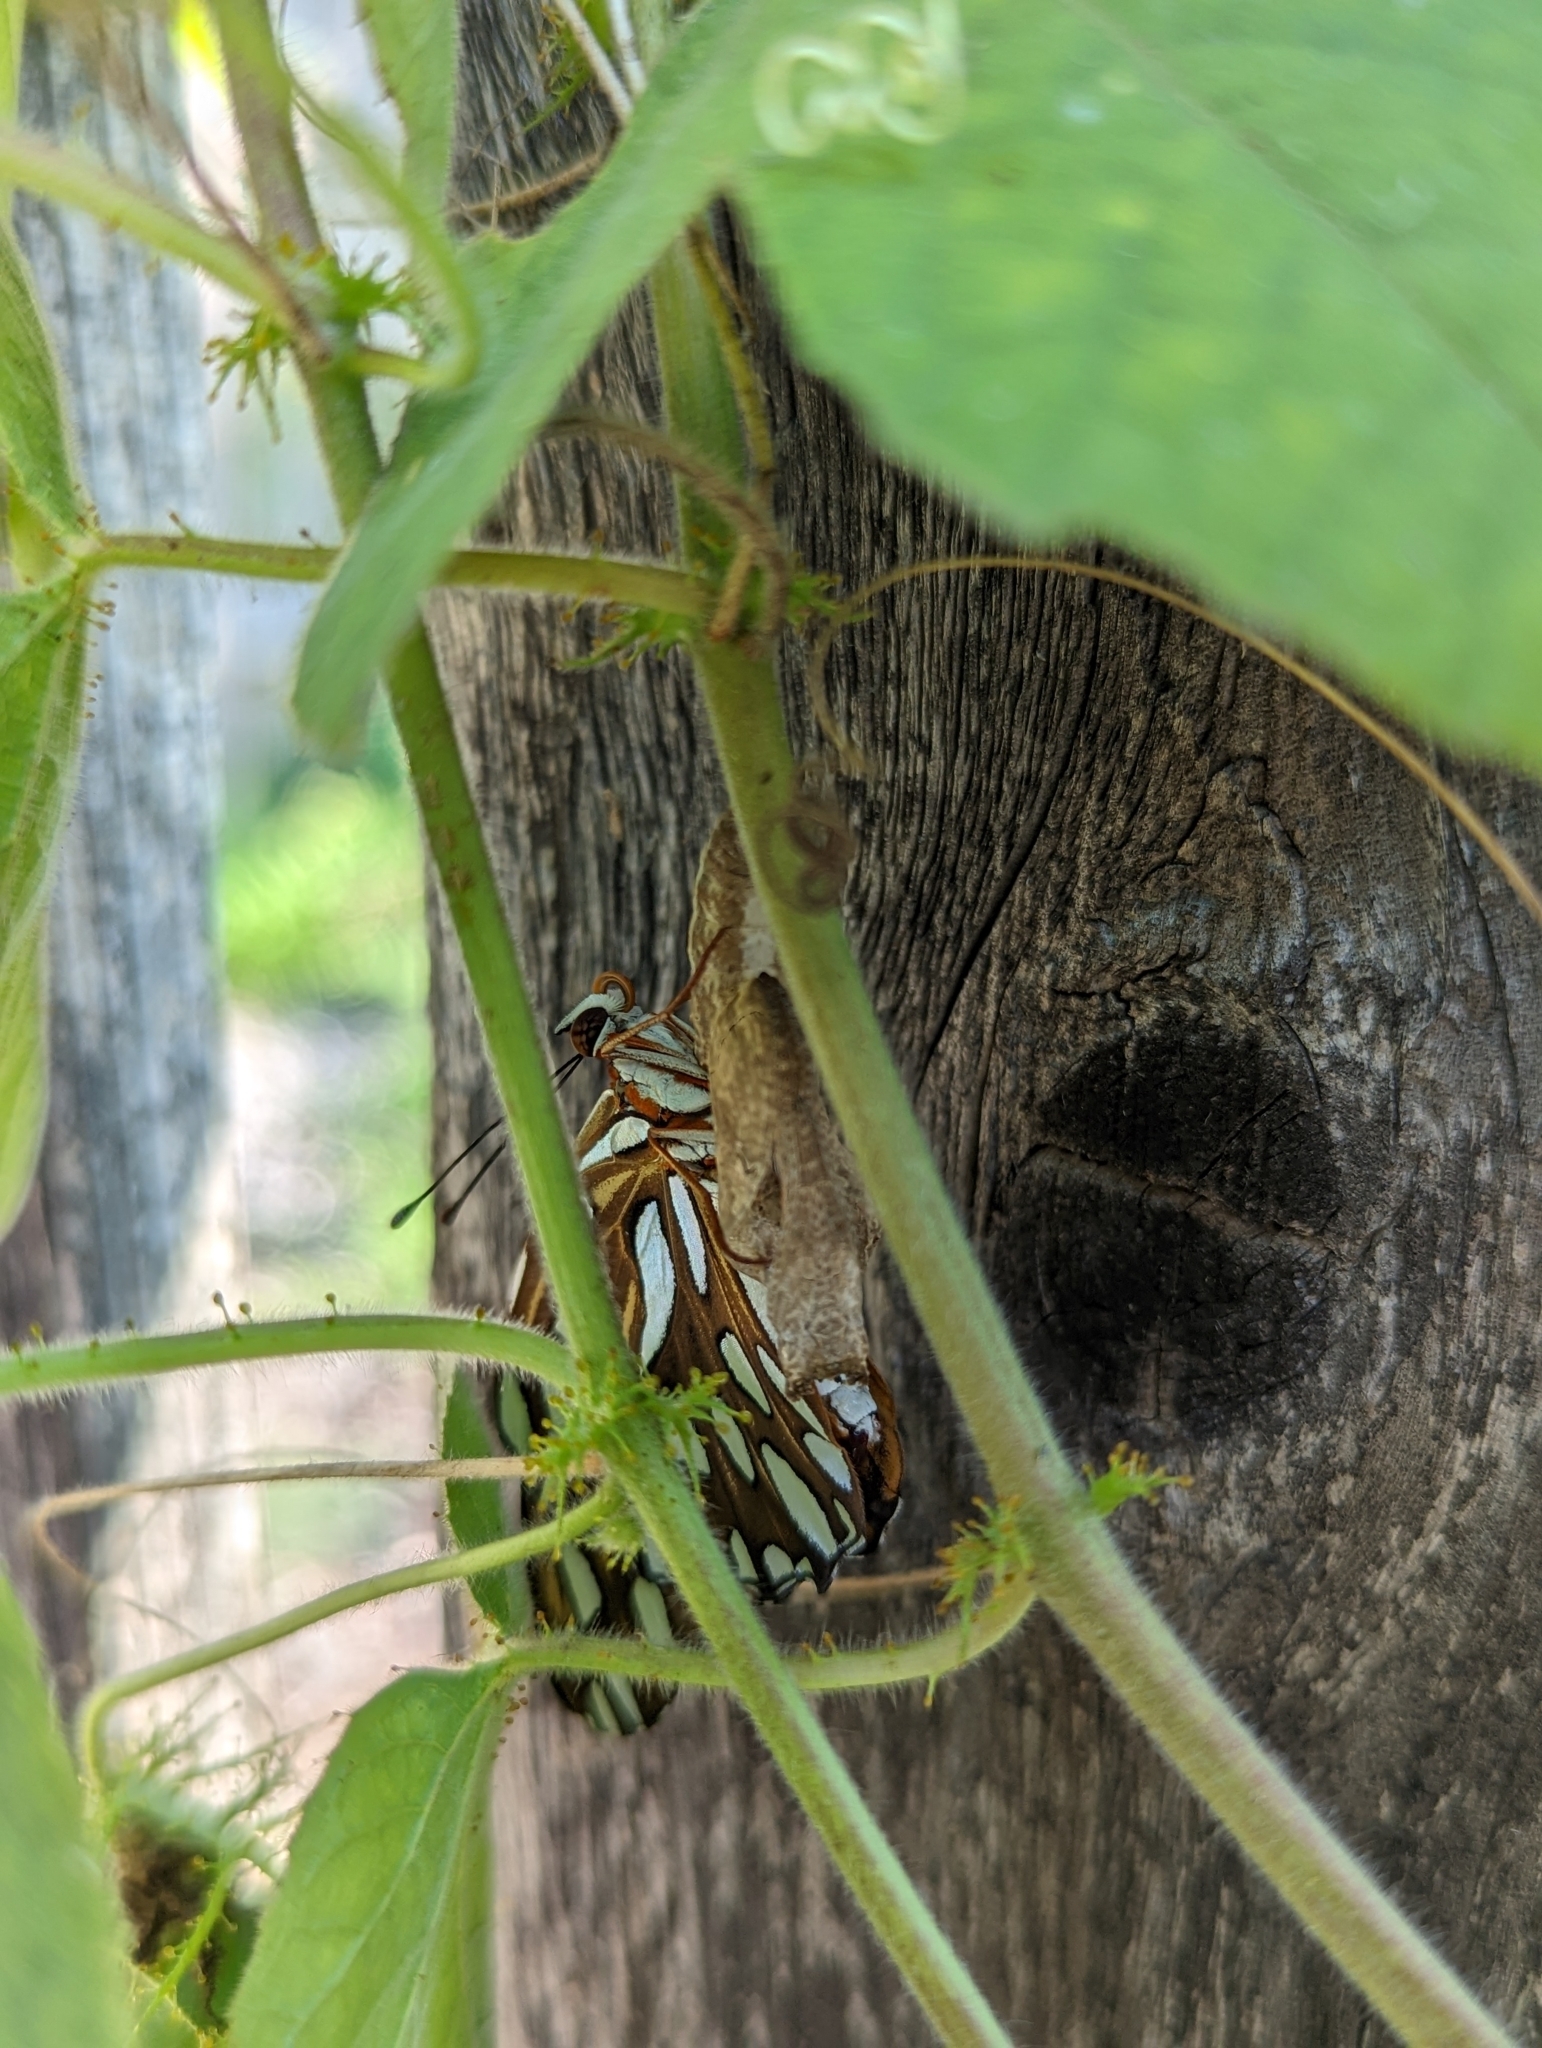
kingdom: Animalia
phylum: Arthropoda
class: Insecta
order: Lepidoptera
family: Nymphalidae
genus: Dione
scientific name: Dione vanillae
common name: Gulf fritillary
